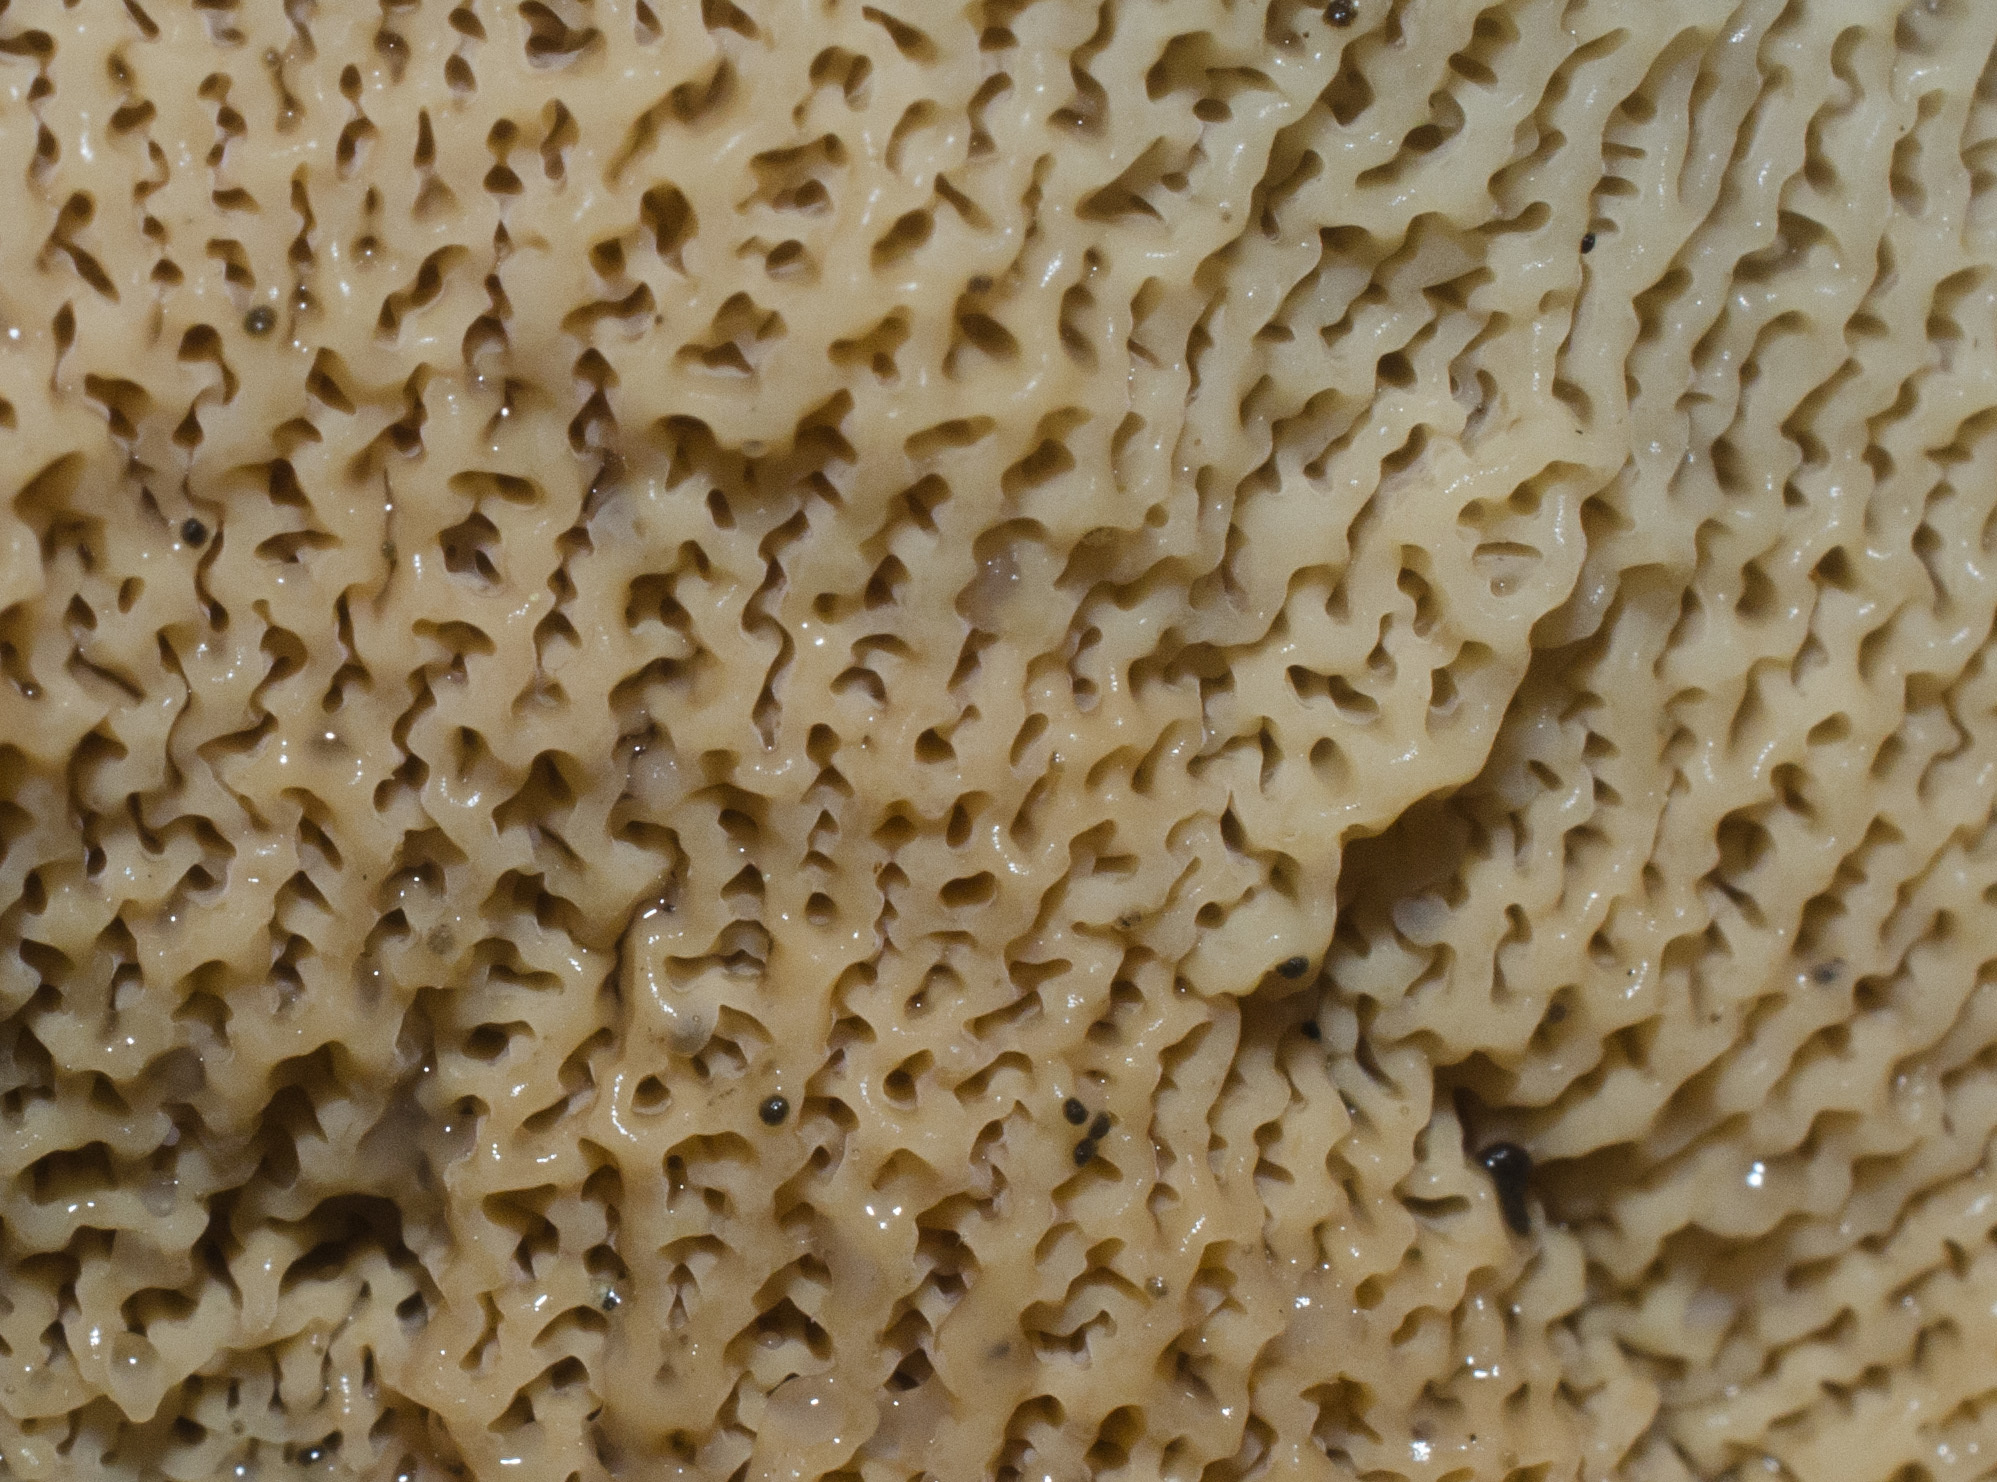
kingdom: Fungi
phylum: Basidiomycota
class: Agaricomycetes
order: Polyporales
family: Meruliaceae
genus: Phlebia
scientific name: Phlebia tremellosa
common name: Jelly rot
